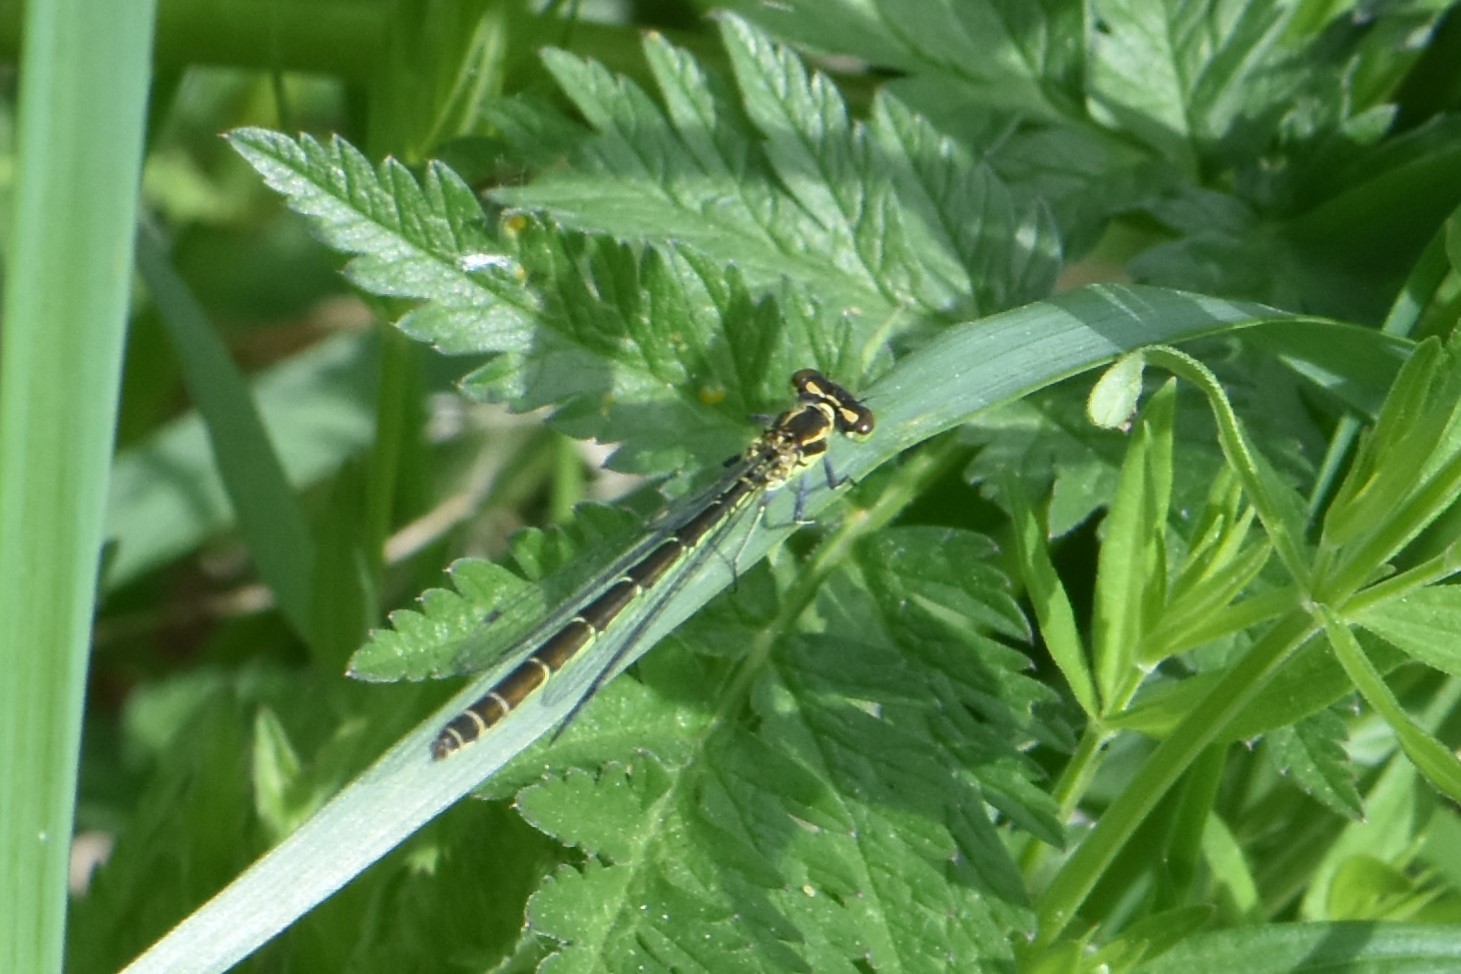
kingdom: Animalia
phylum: Arthropoda
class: Insecta
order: Odonata
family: Coenagrionidae
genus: Coenagrion
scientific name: Coenagrion hastulatum
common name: Spearhead bluet
